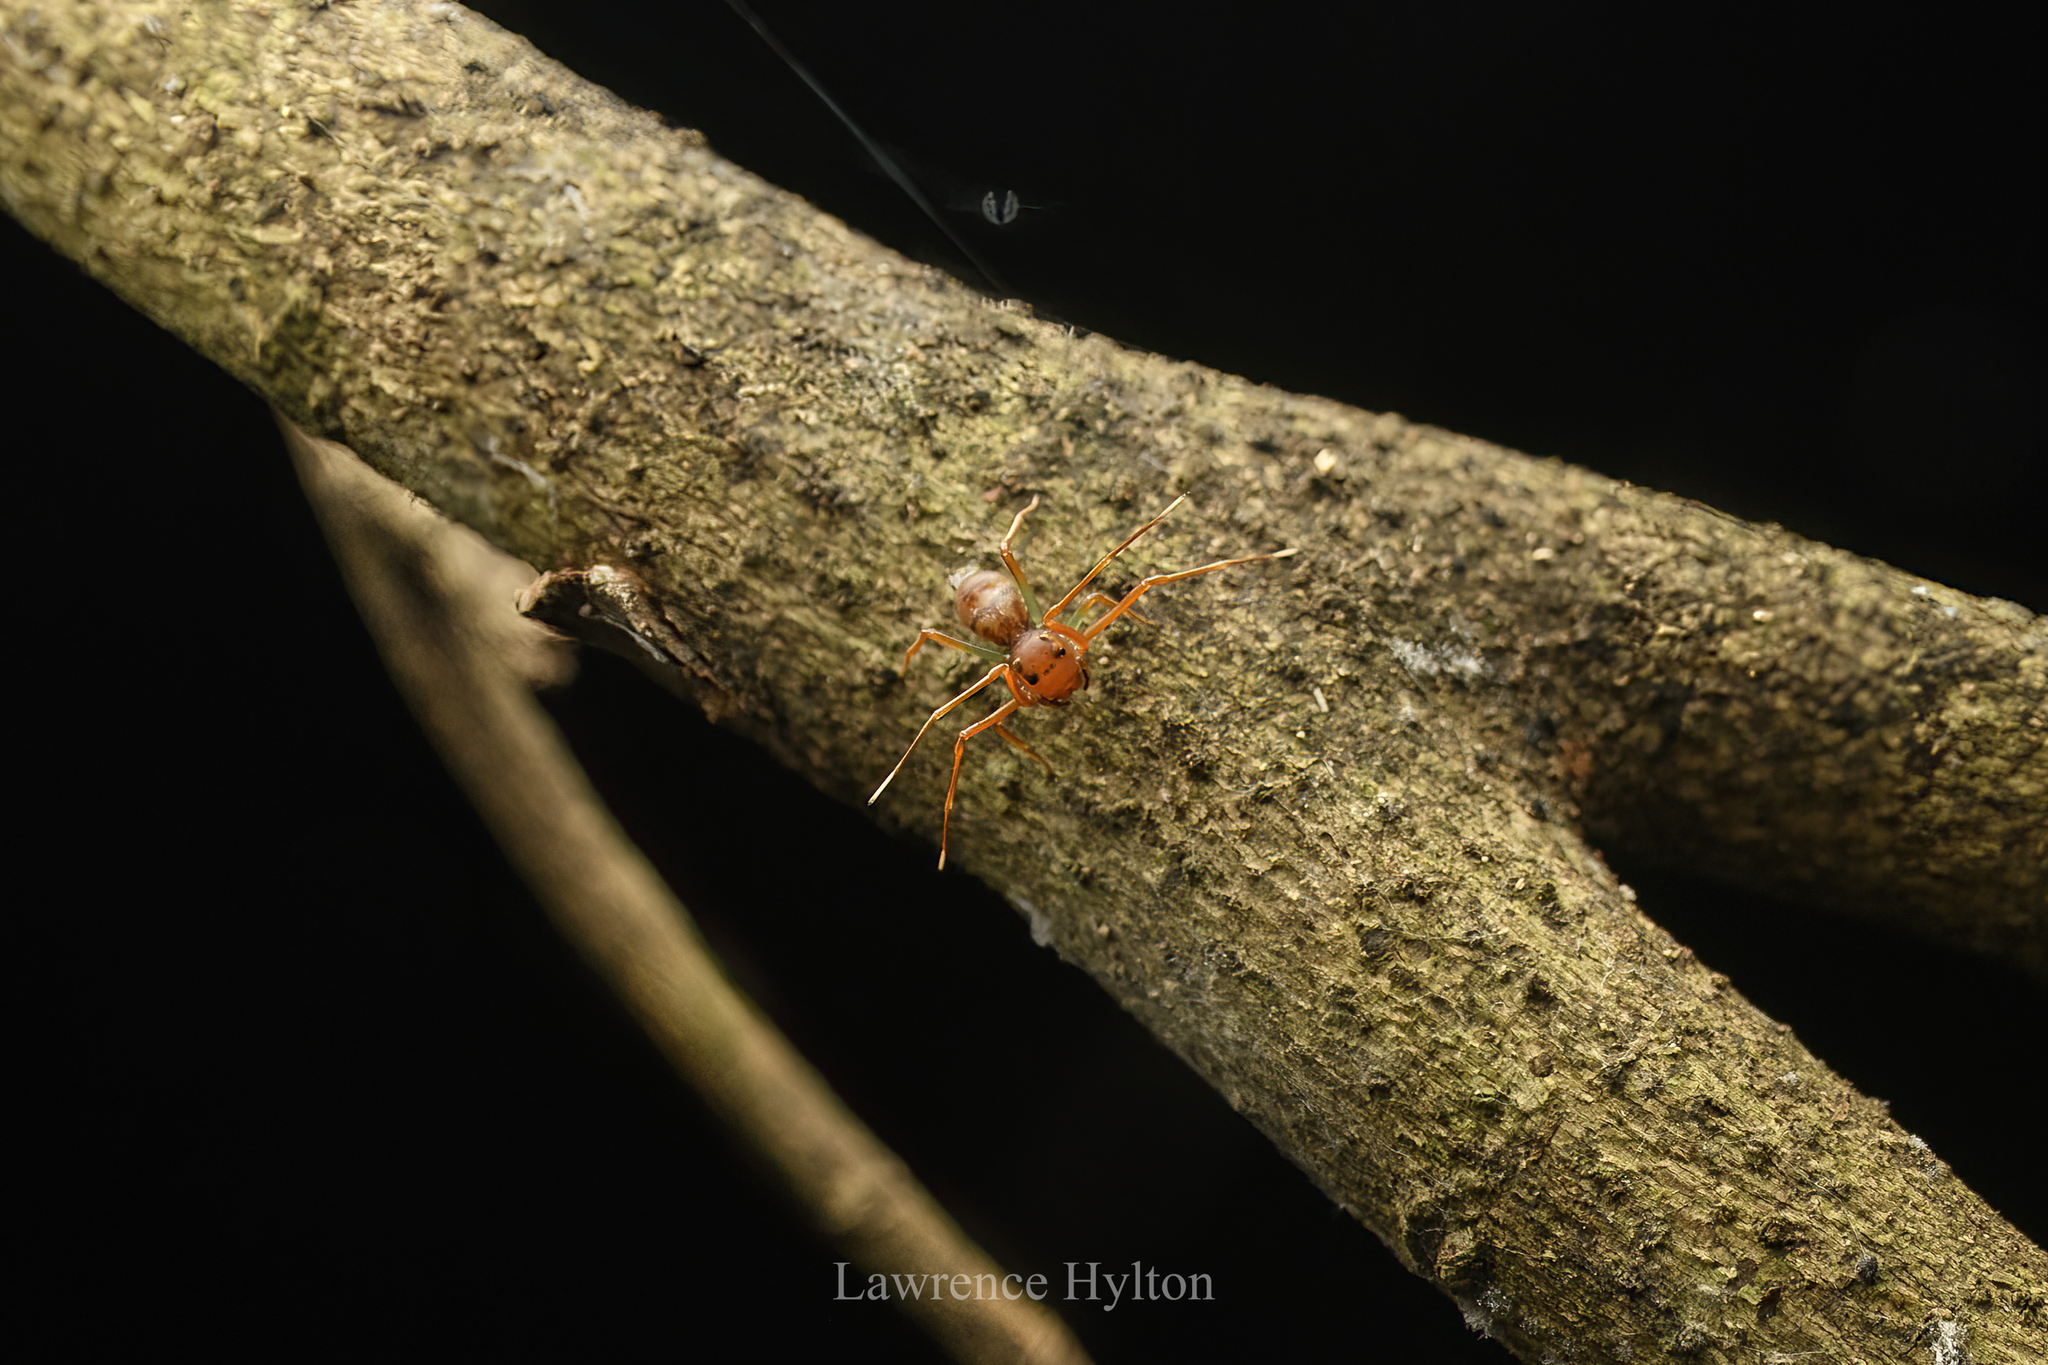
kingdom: Animalia
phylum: Arthropoda
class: Arachnida
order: Araneae
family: Thomisidae
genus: Amyciaea
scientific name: Amyciaea forticeps
